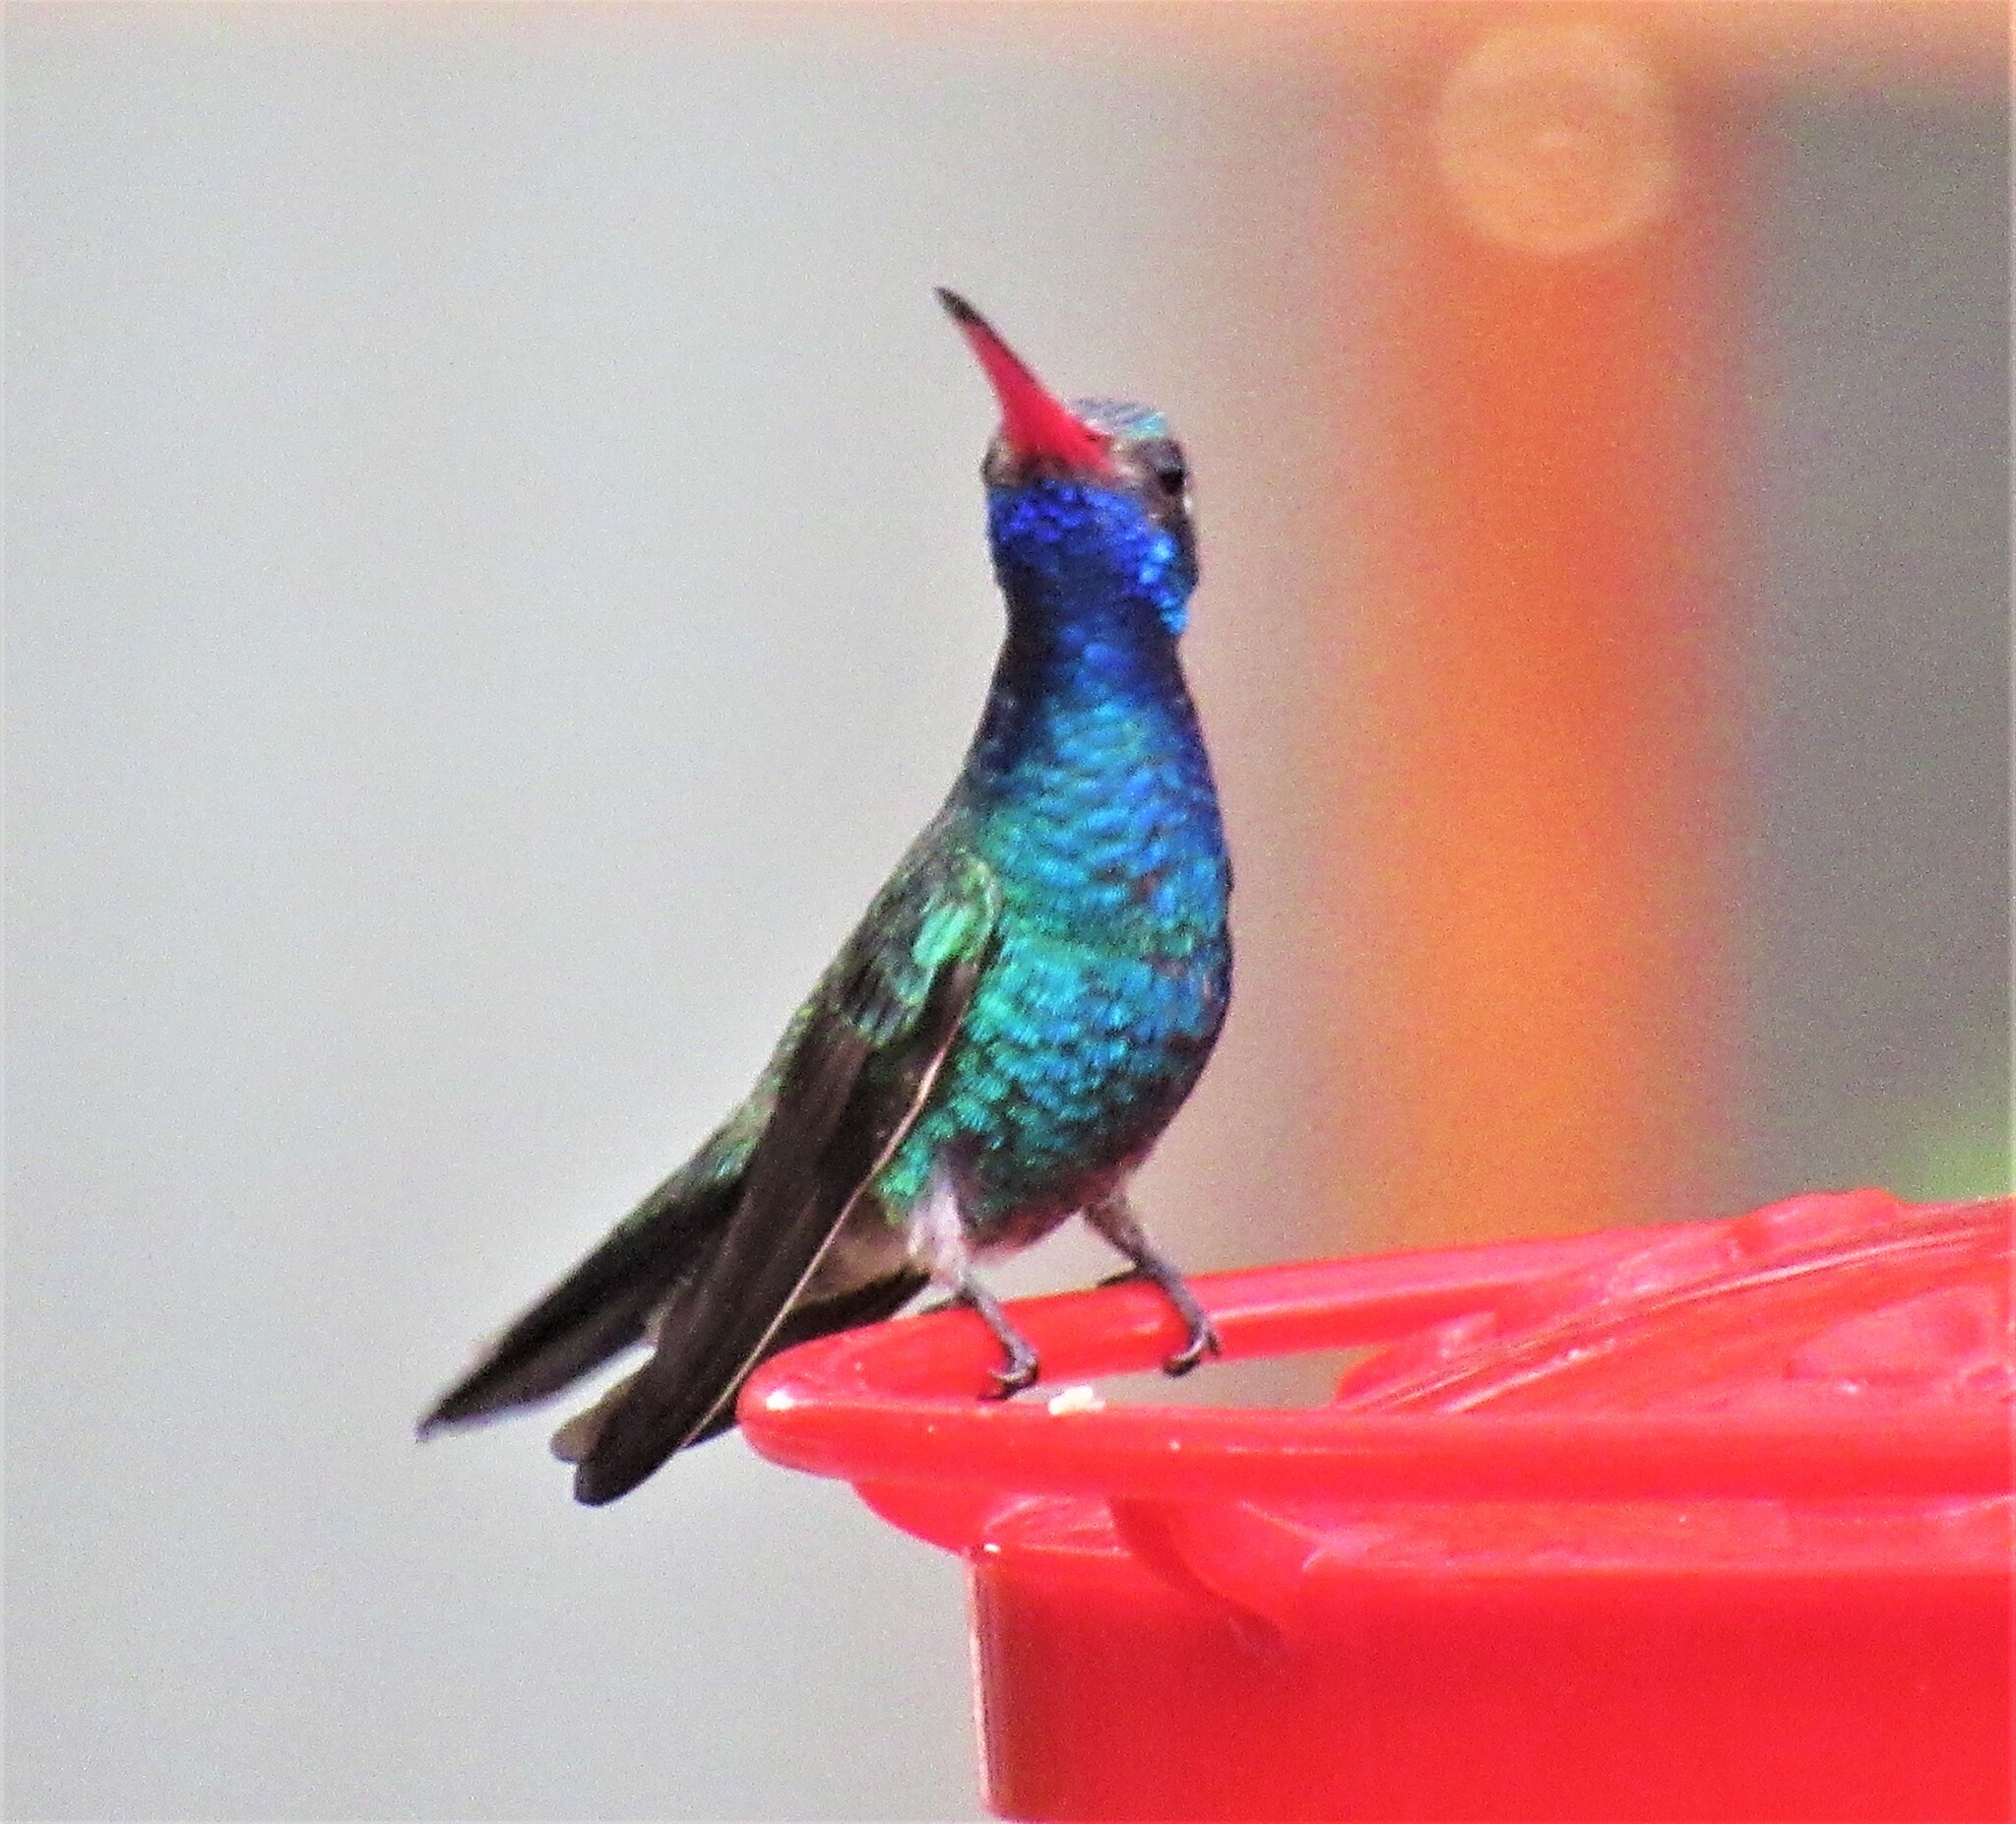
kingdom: Animalia
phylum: Chordata
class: Aves
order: Apodiformes
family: Trochilidae
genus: Cynanthus
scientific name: Cynanthus latirostris
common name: Broad-billed hummingbird
